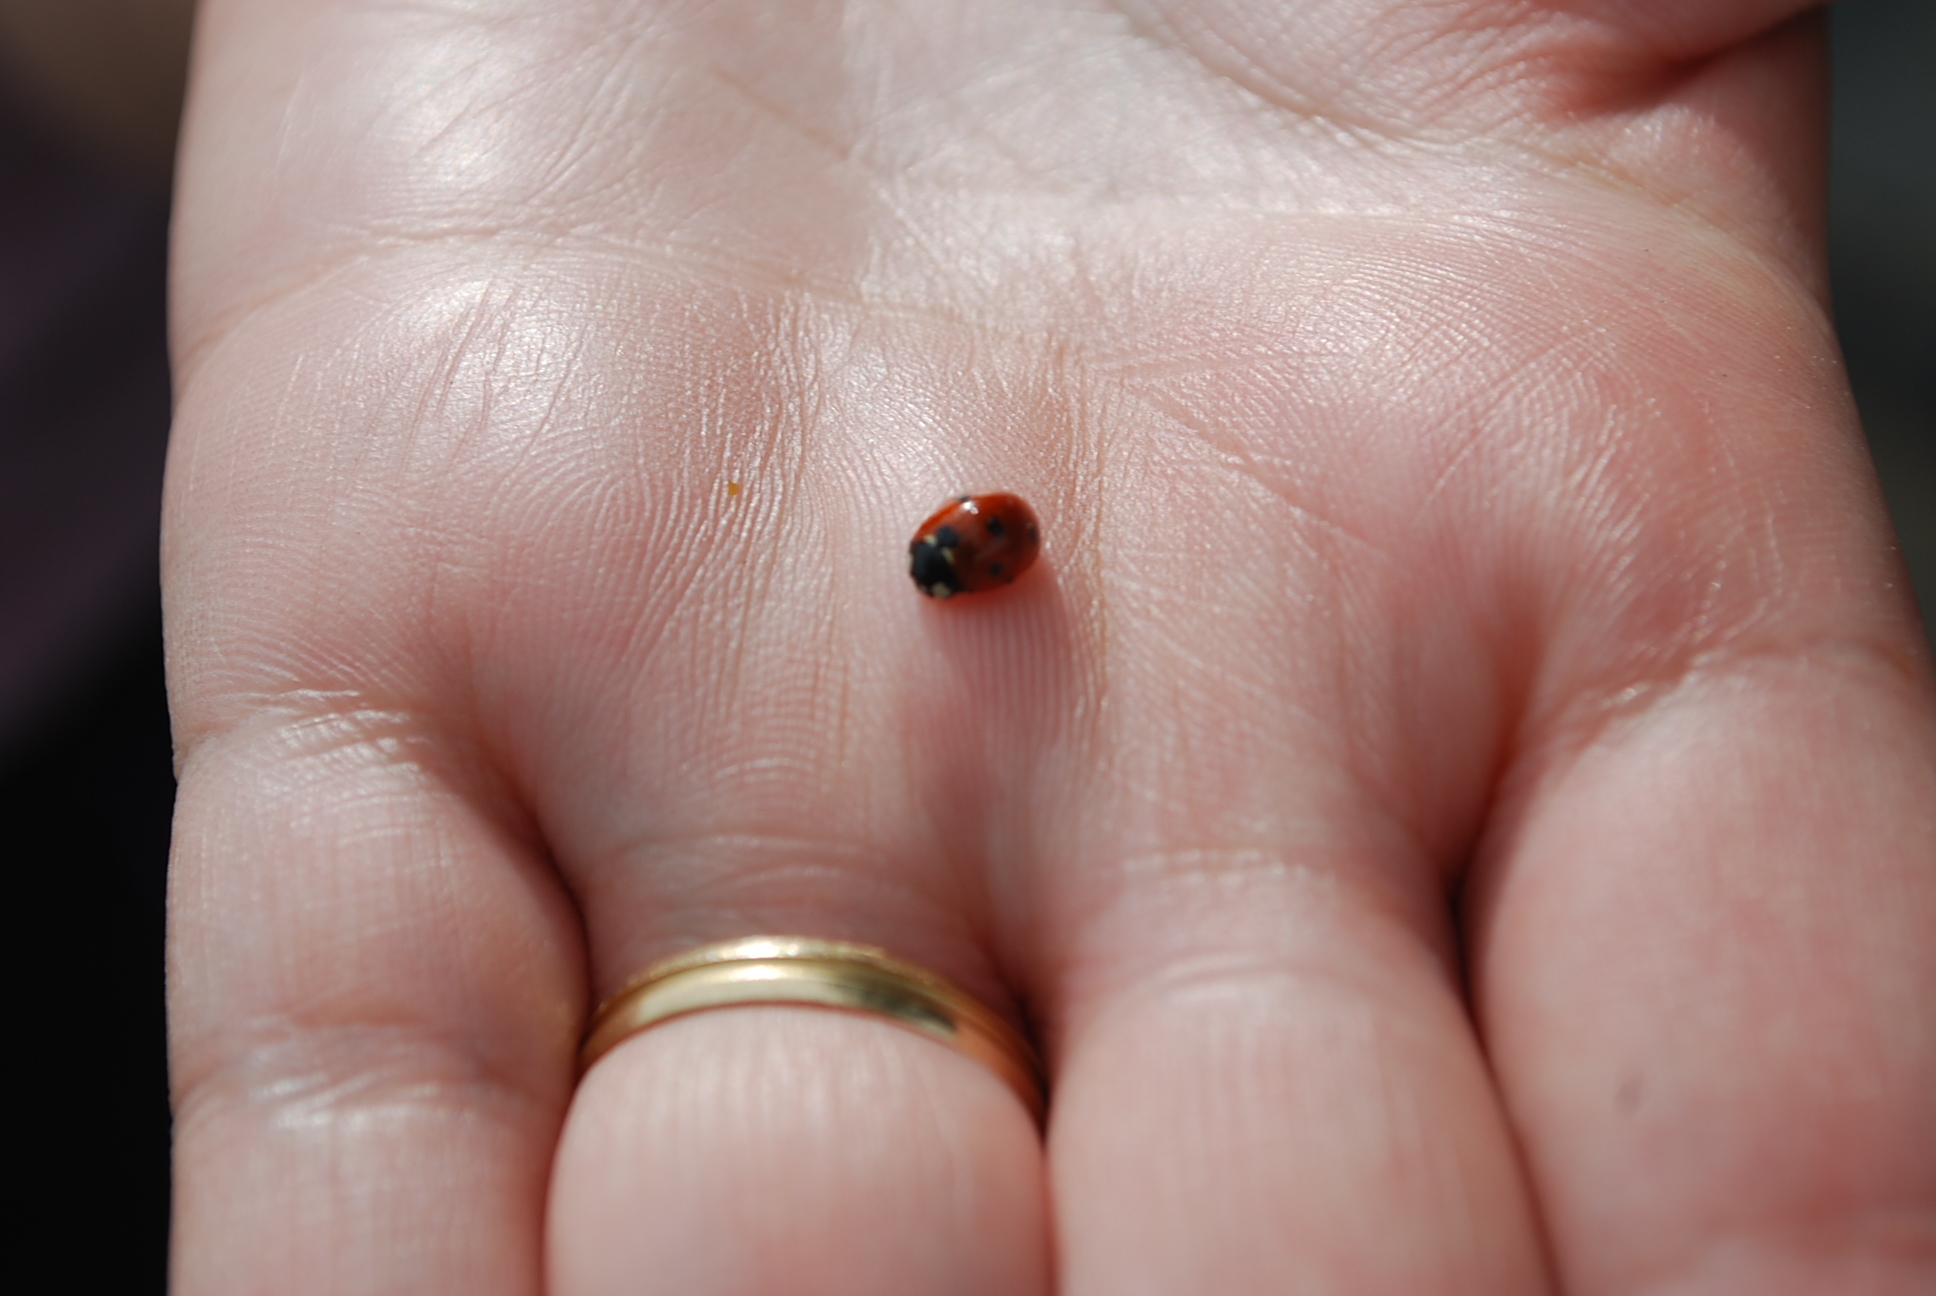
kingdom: Animalia
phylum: Arthropoda
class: Insecta
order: Coleoptera
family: Coccinellidae
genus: Coccinella
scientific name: Coccinella septempunctata
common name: Sevenspotted lady beetle
